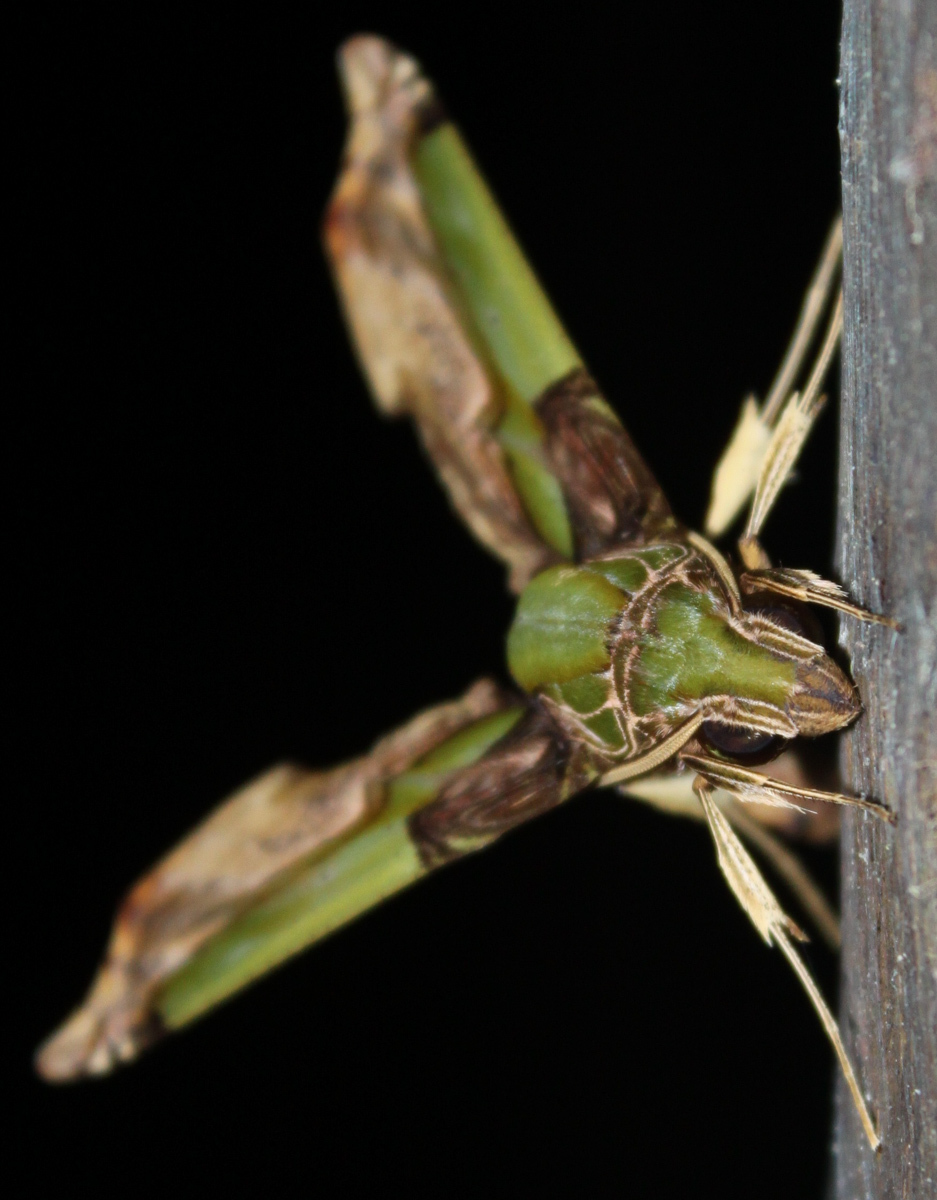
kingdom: Animalia
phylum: Arthropoda
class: Insecta
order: Lepidoptera
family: Sphingidae
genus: Eupanacra
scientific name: Eupanacra busiris
